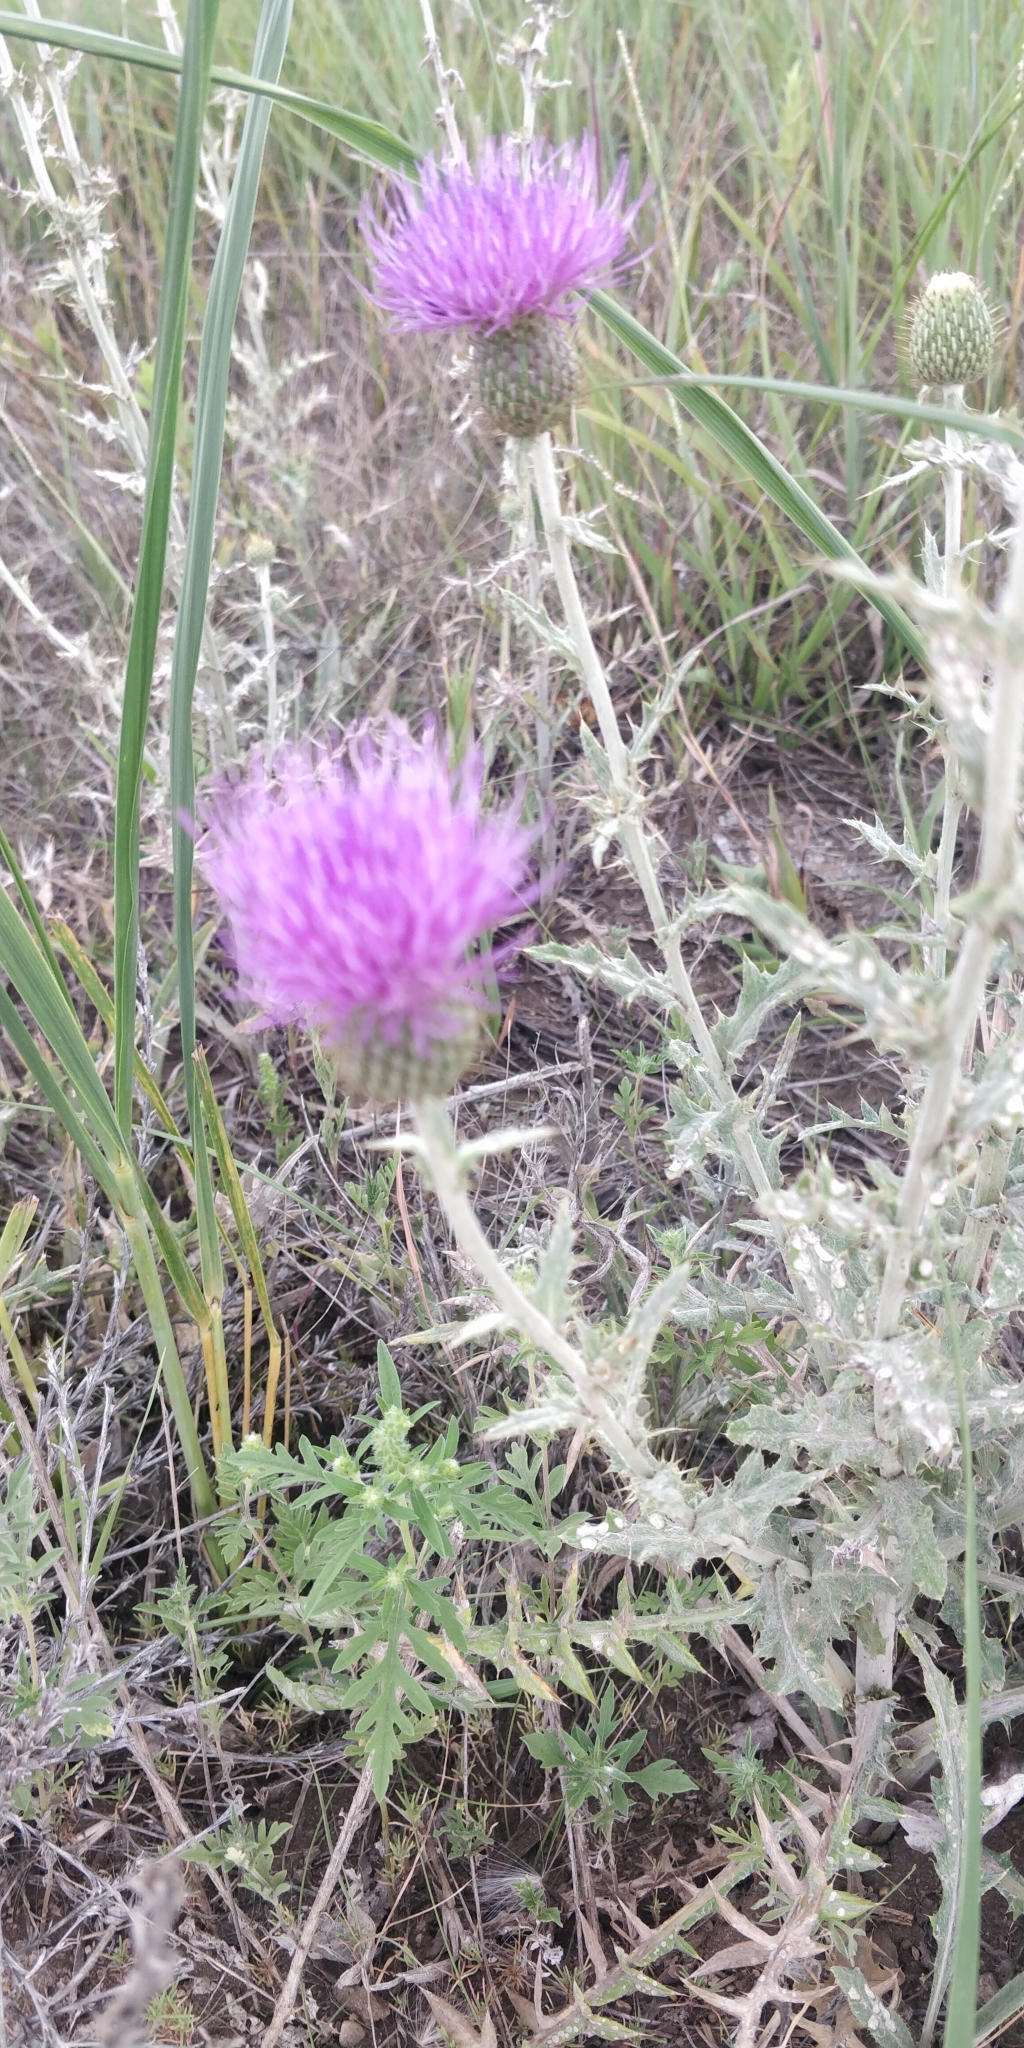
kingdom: Plantae
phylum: Tracheophyta
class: Magnoliopsida
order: Asterales
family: Asteraceae
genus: Cirsium
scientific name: Cirsium flodmanii
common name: Flodman's thistle
